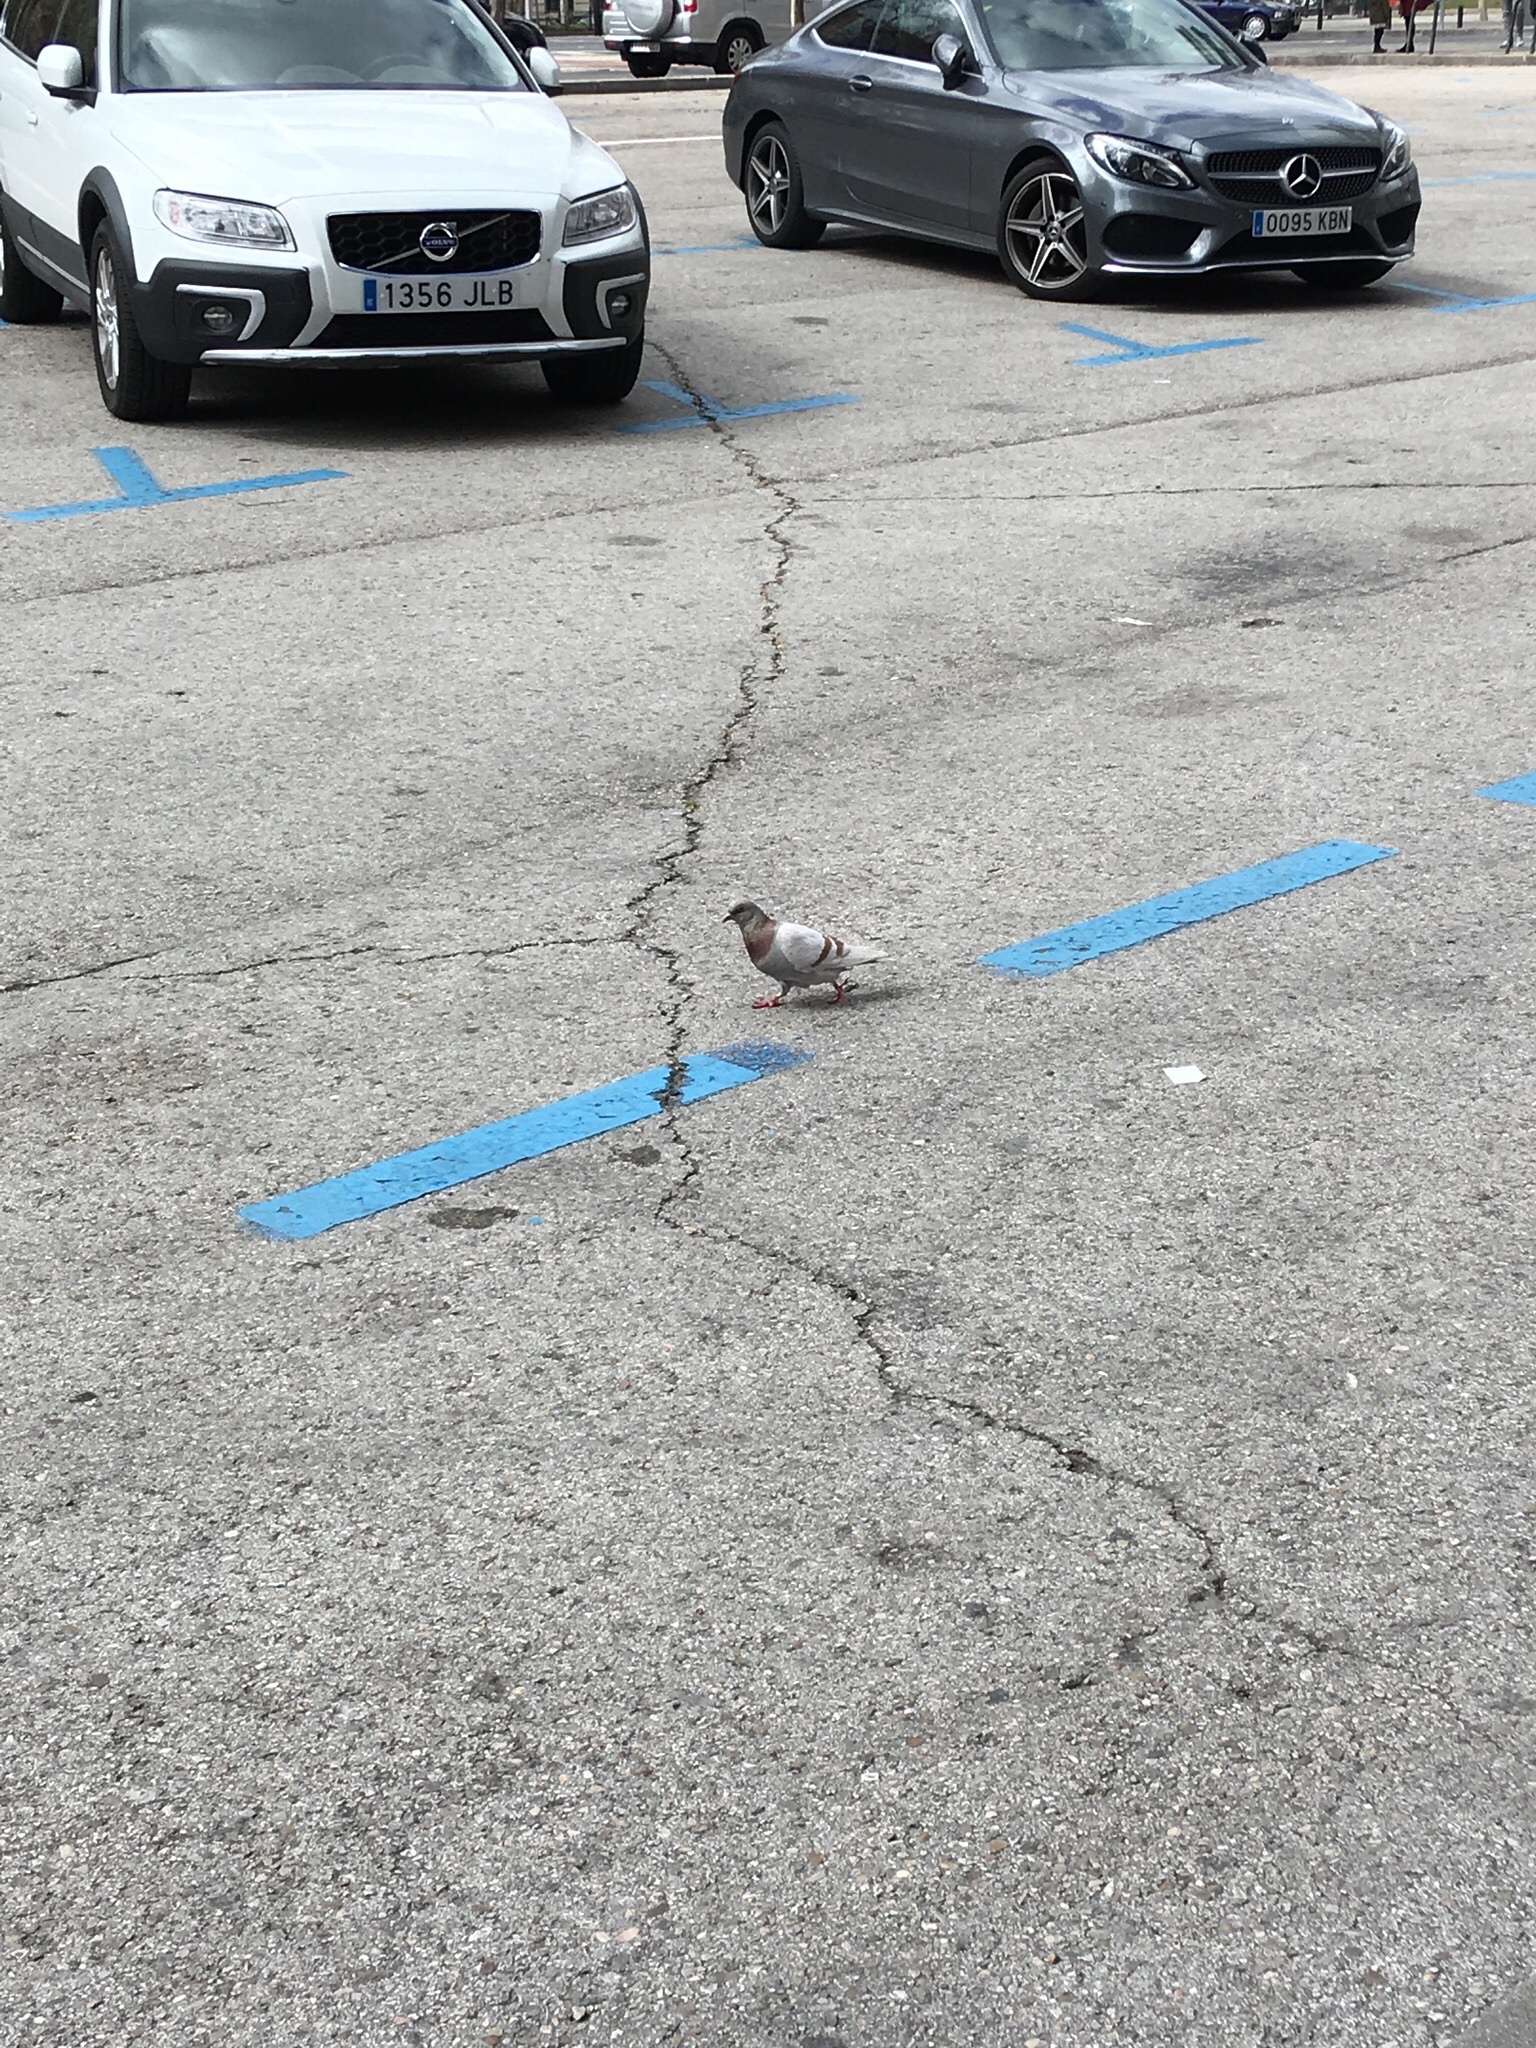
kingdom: Animalia
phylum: Chordata
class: Aves
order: Columbiformes
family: Columbidae
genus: Columba
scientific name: Columba livia
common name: Rock pigeon
